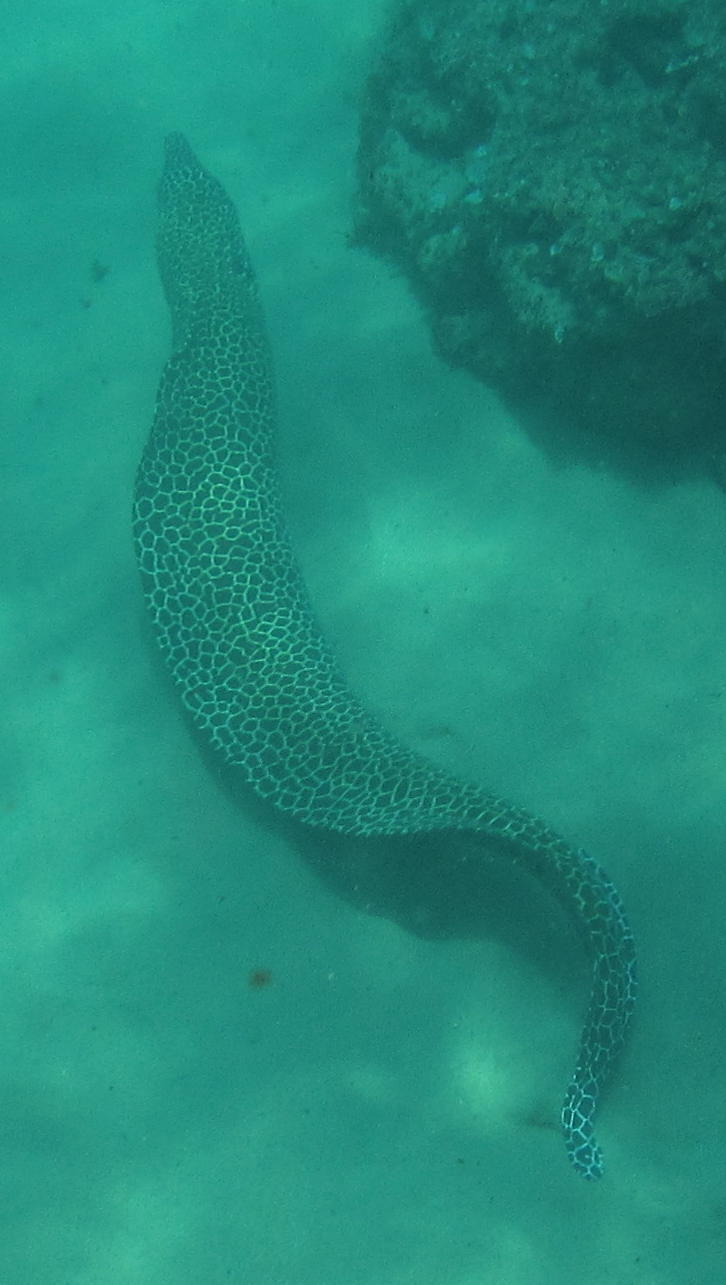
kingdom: Animalia
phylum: Chordata
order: Anguilliformes
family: Muraenidae
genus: Gymnothorax
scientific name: Gymnothorax favagineus
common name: Honeycomb moray
